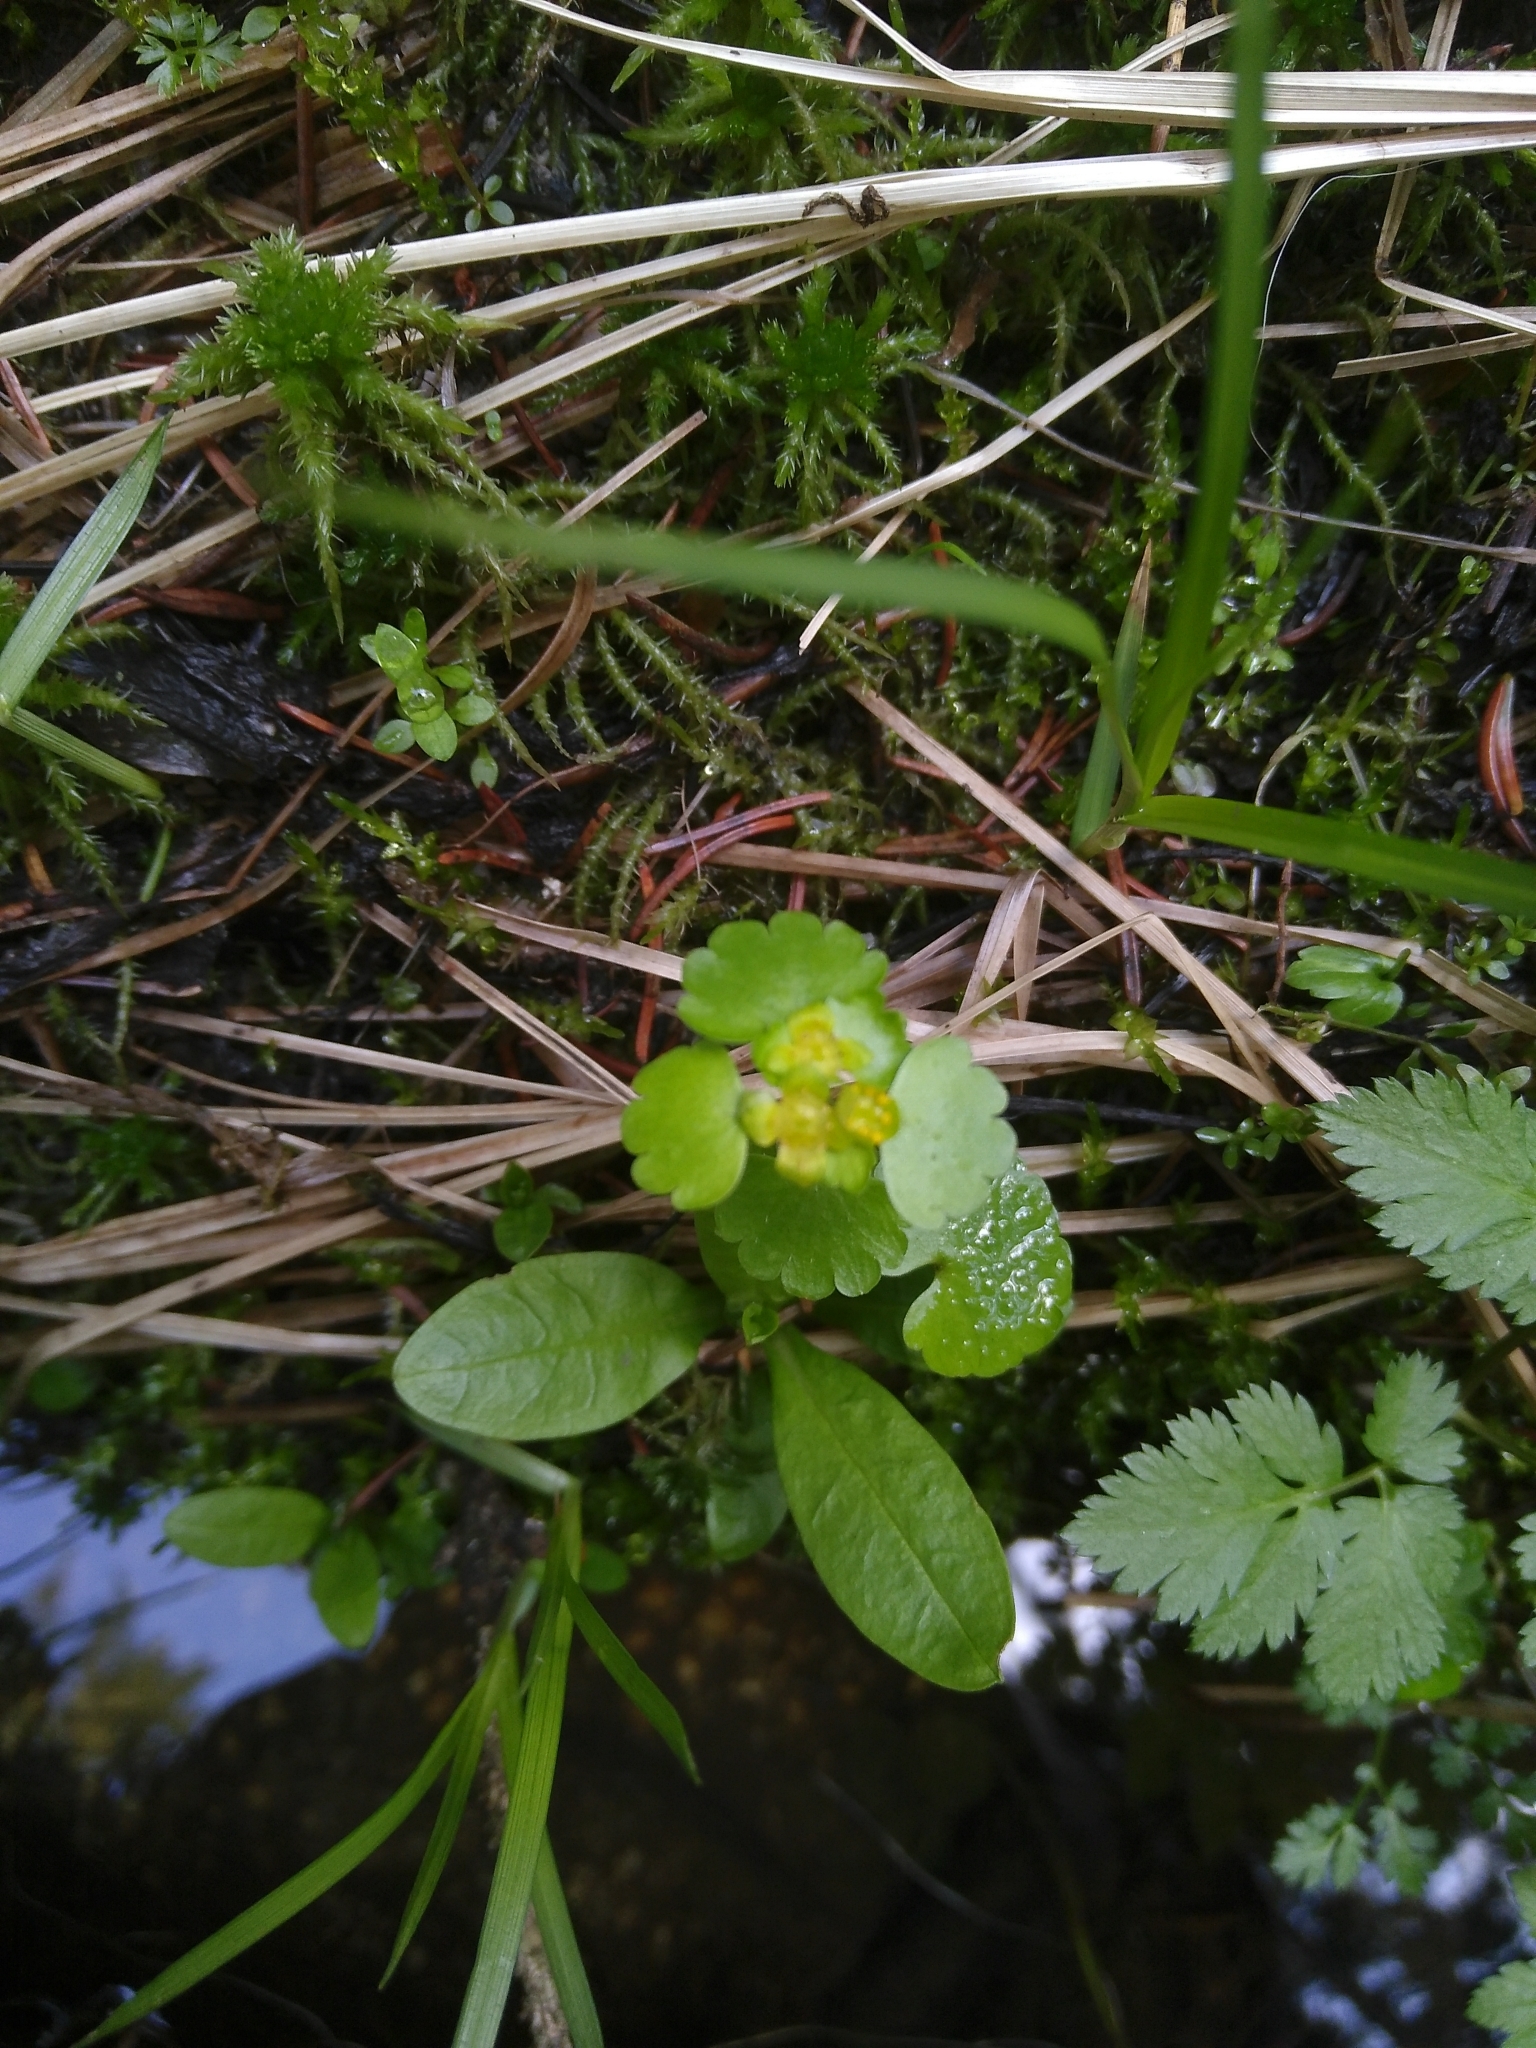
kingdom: Plantae
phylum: Tracheophyta
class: Magnoliopsida
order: Saxifragales
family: Saxifragaceae
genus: Chrysosplenium
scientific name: Chrysosplenium alternifolium
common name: Alternate-leaved golden-saxifrage
